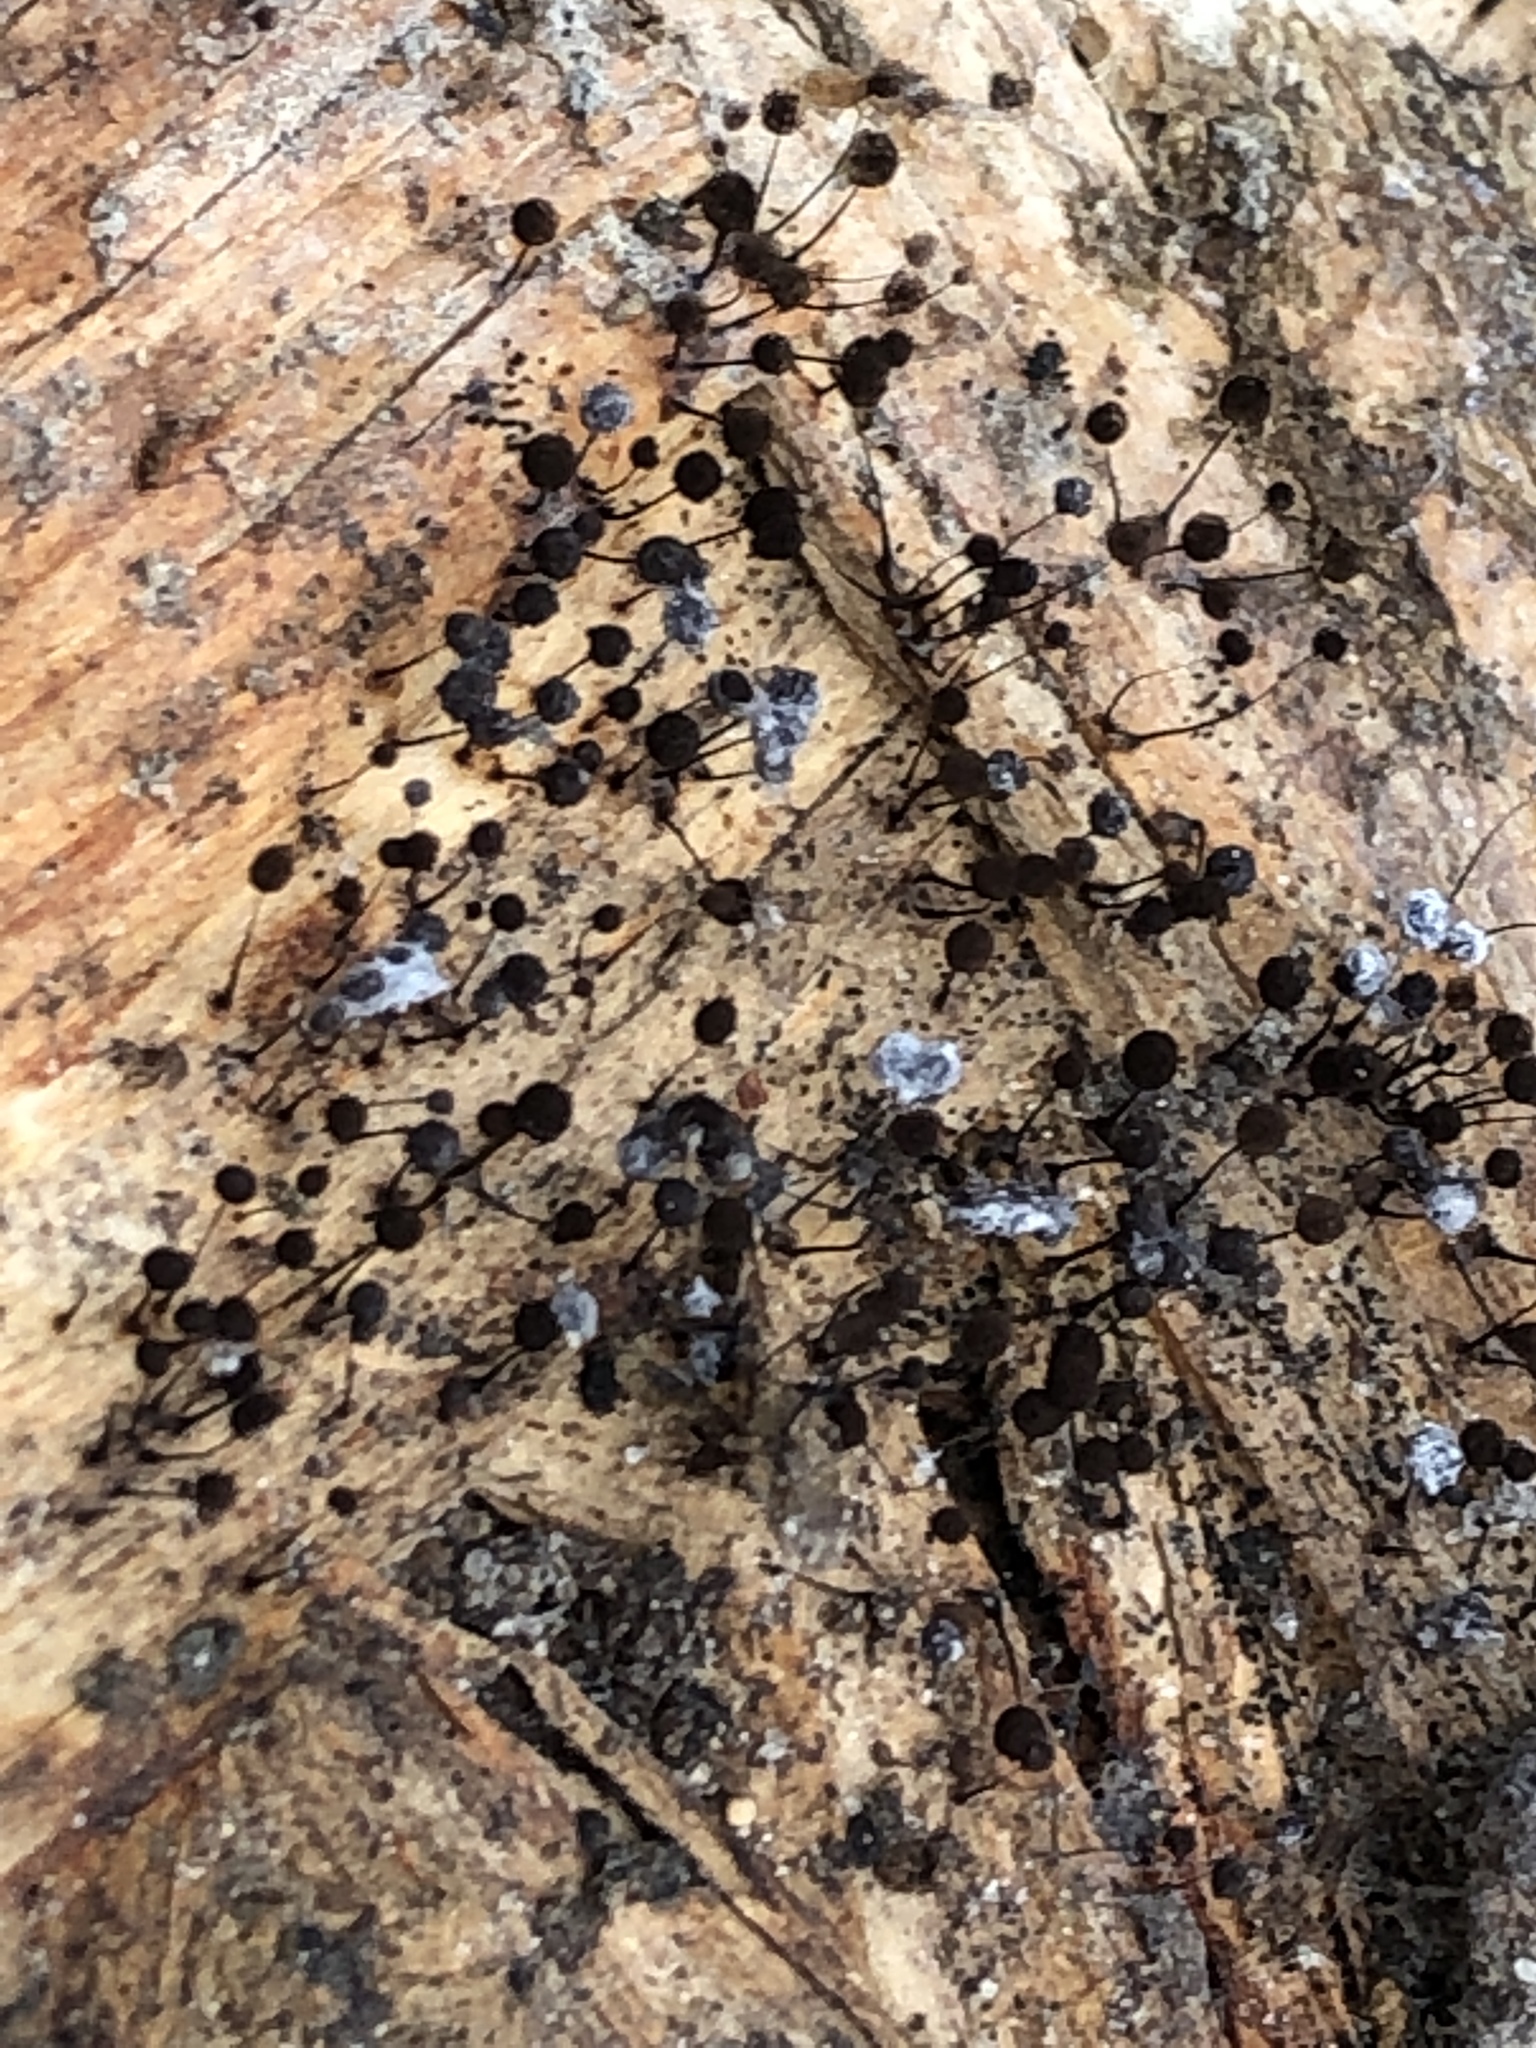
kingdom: Protozoa
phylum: Mycetozoa
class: Myxomycetes
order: Stemonitidales
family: Stemonitidaceae
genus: Comatricha
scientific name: Comatricha nigra
